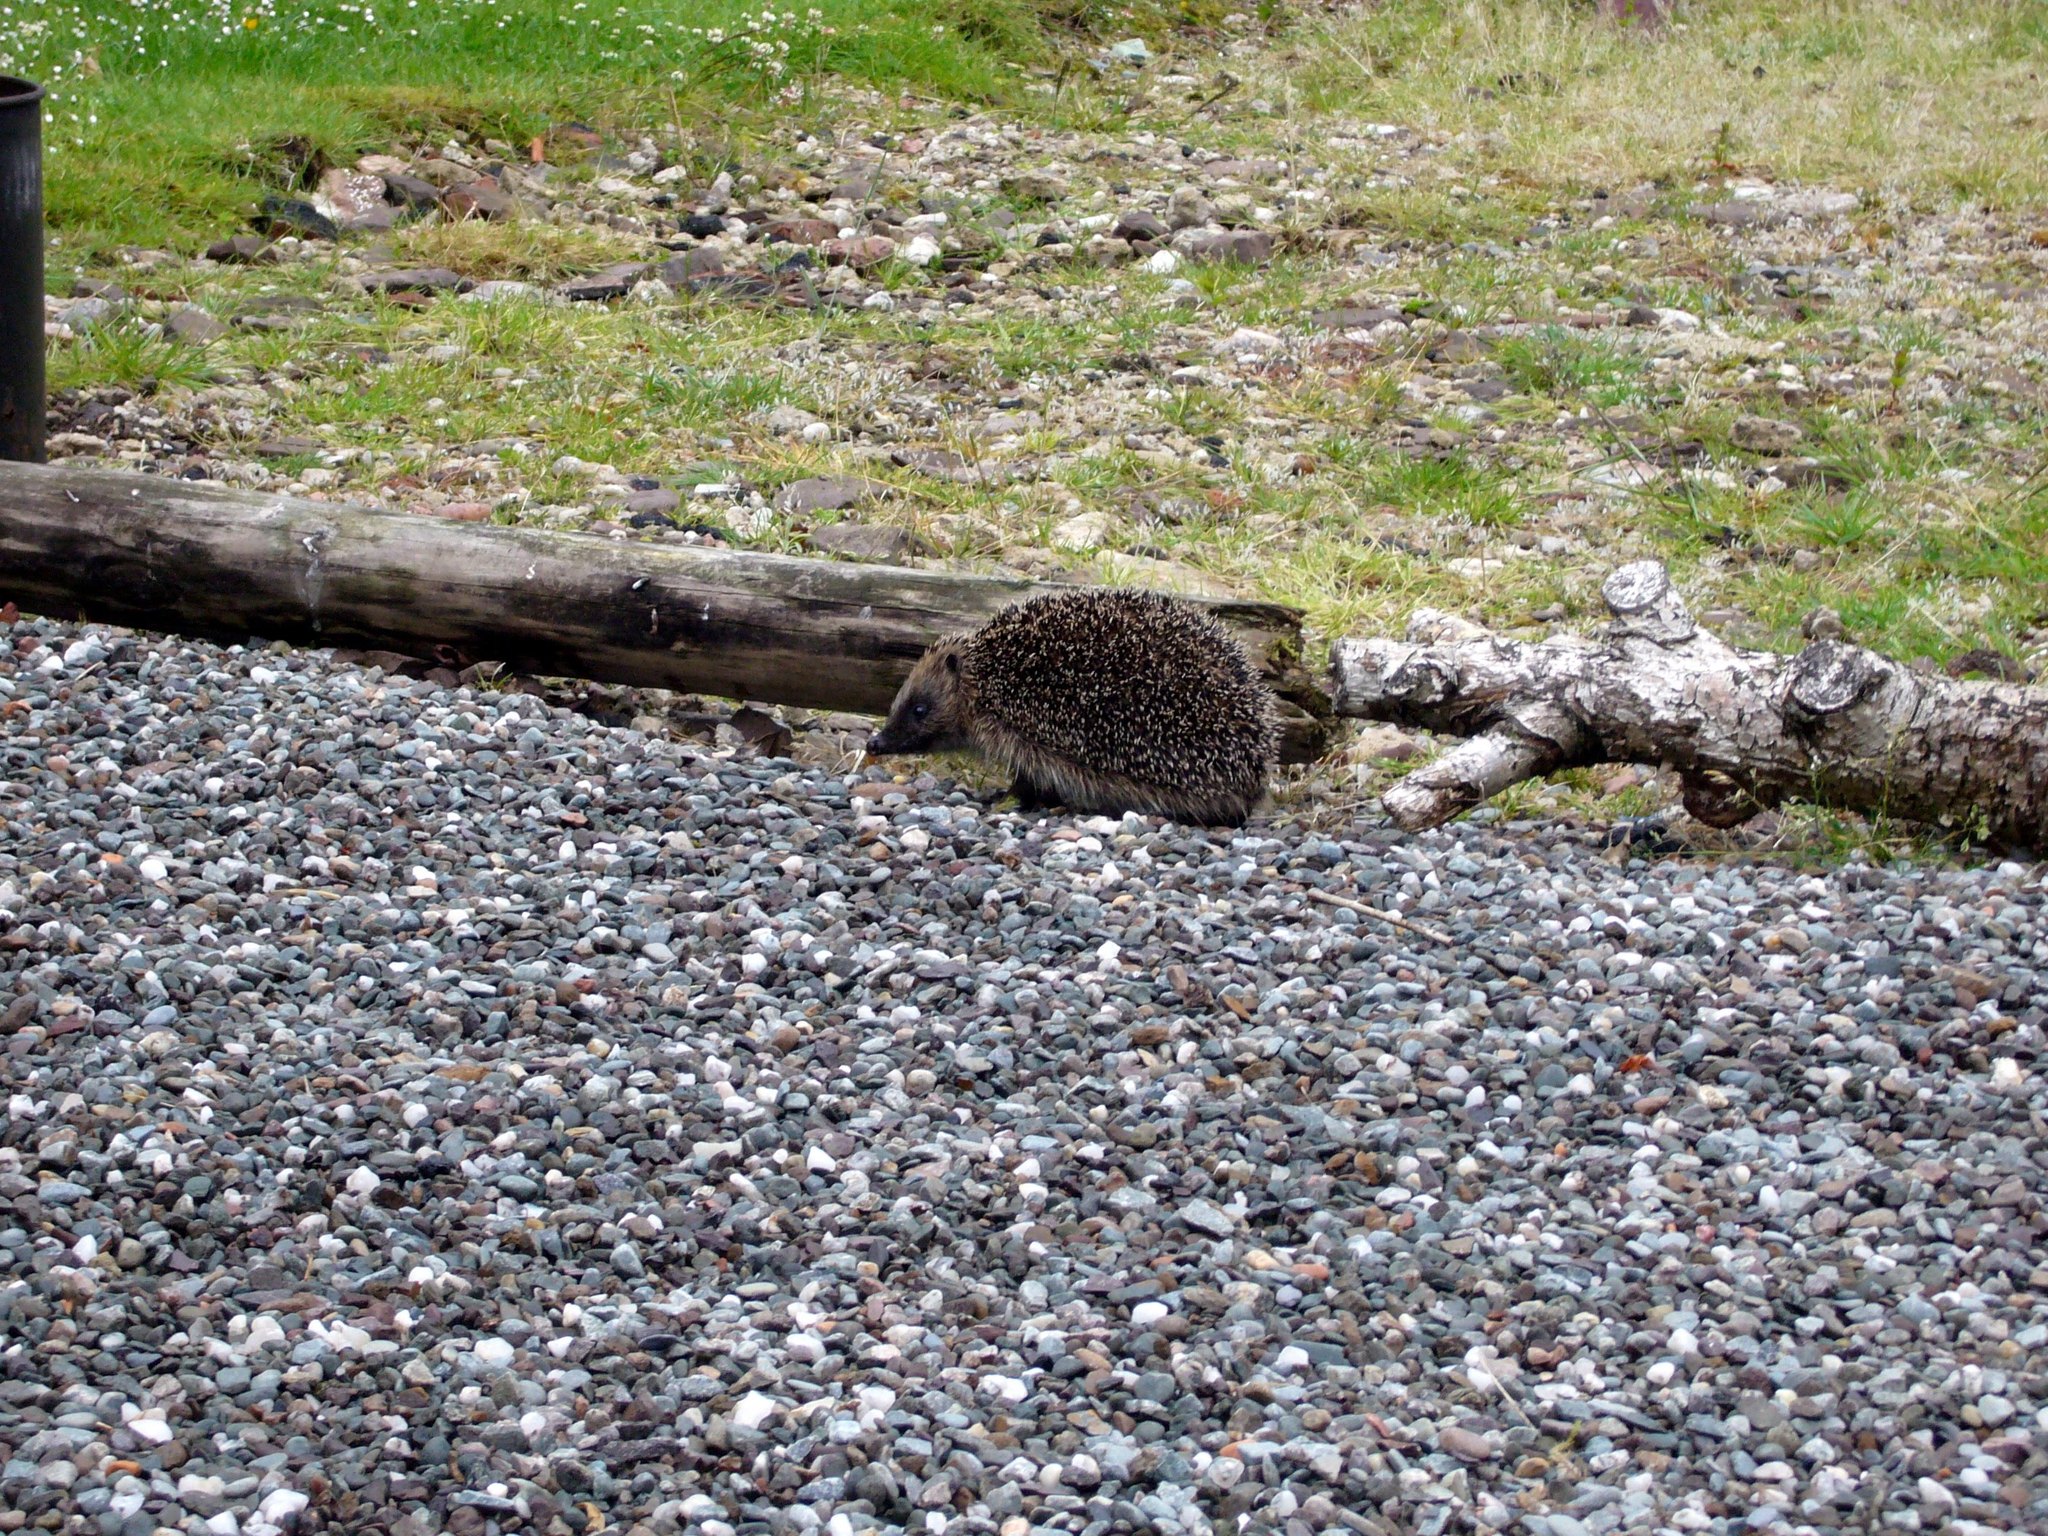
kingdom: Animalia
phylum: Chordata
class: Mammalia
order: Erinaceomorpha
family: Erinaceidae
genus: Erinaceus
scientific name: Erinaceus europaeus
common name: West european hedgehog
